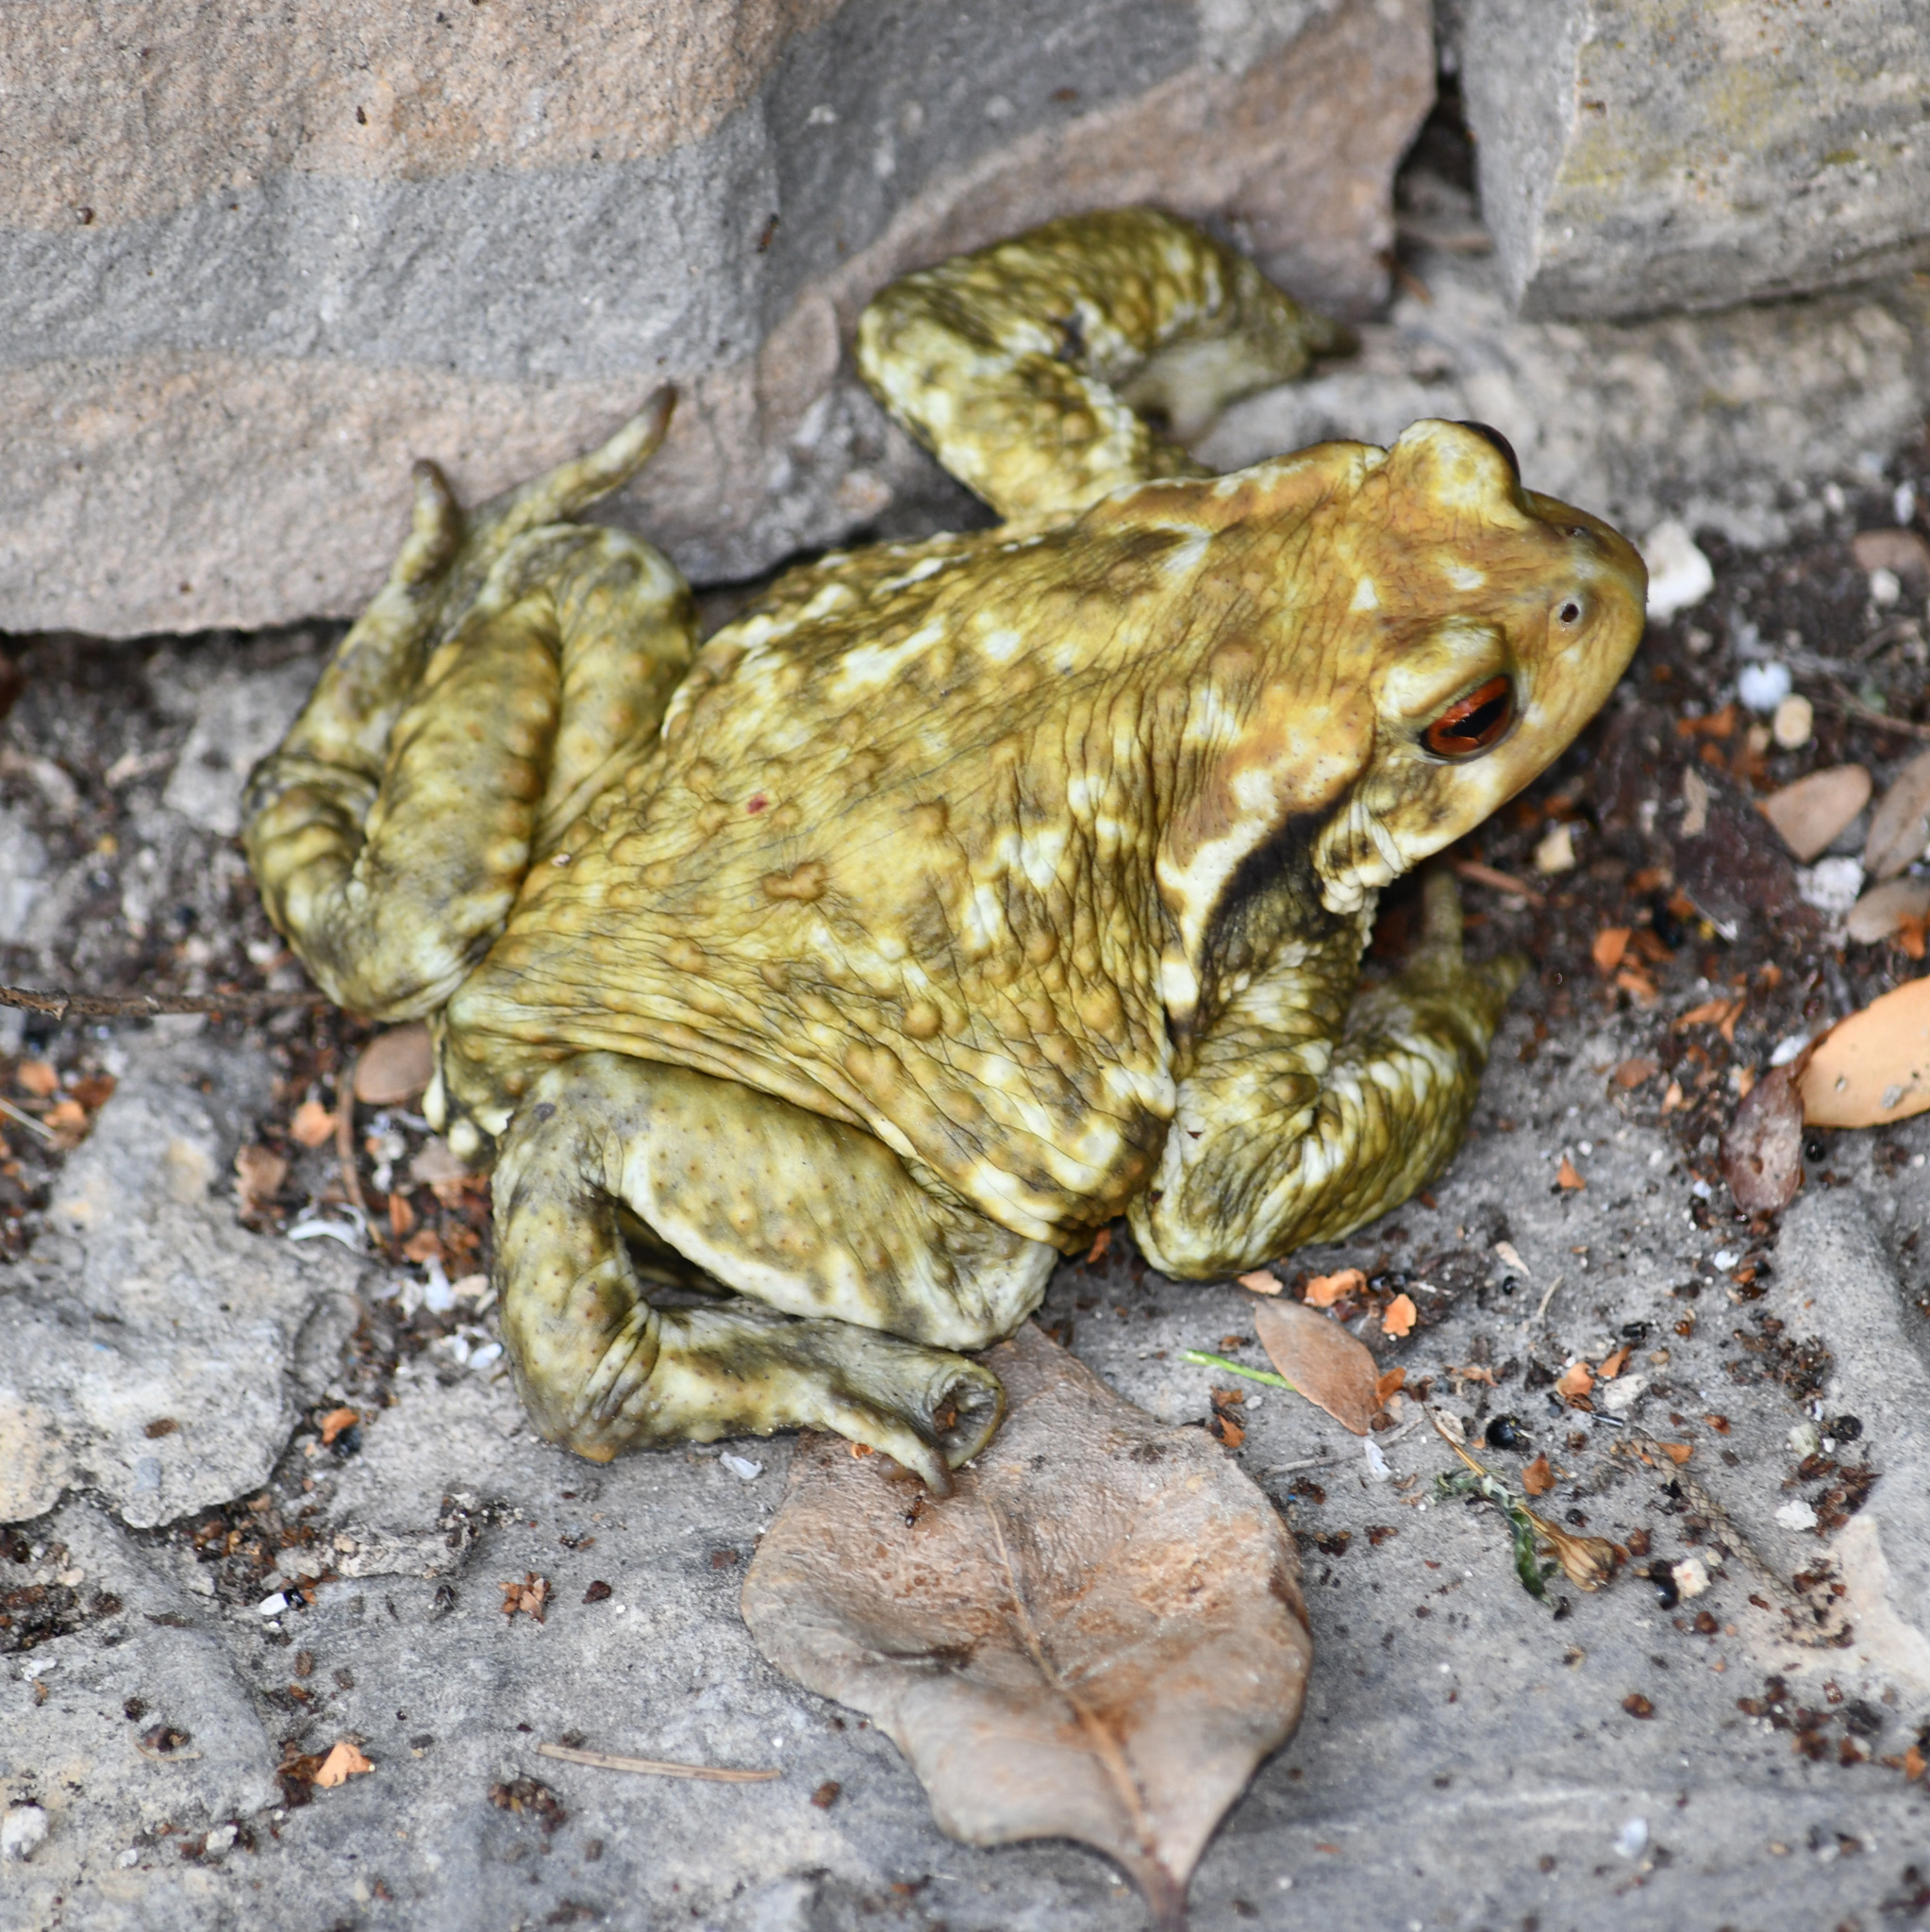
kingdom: Animalia
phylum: Chordata
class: Amphibia
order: Anura
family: Bufonidae
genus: Bufo
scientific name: Bufo spinosus
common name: Western common toad
